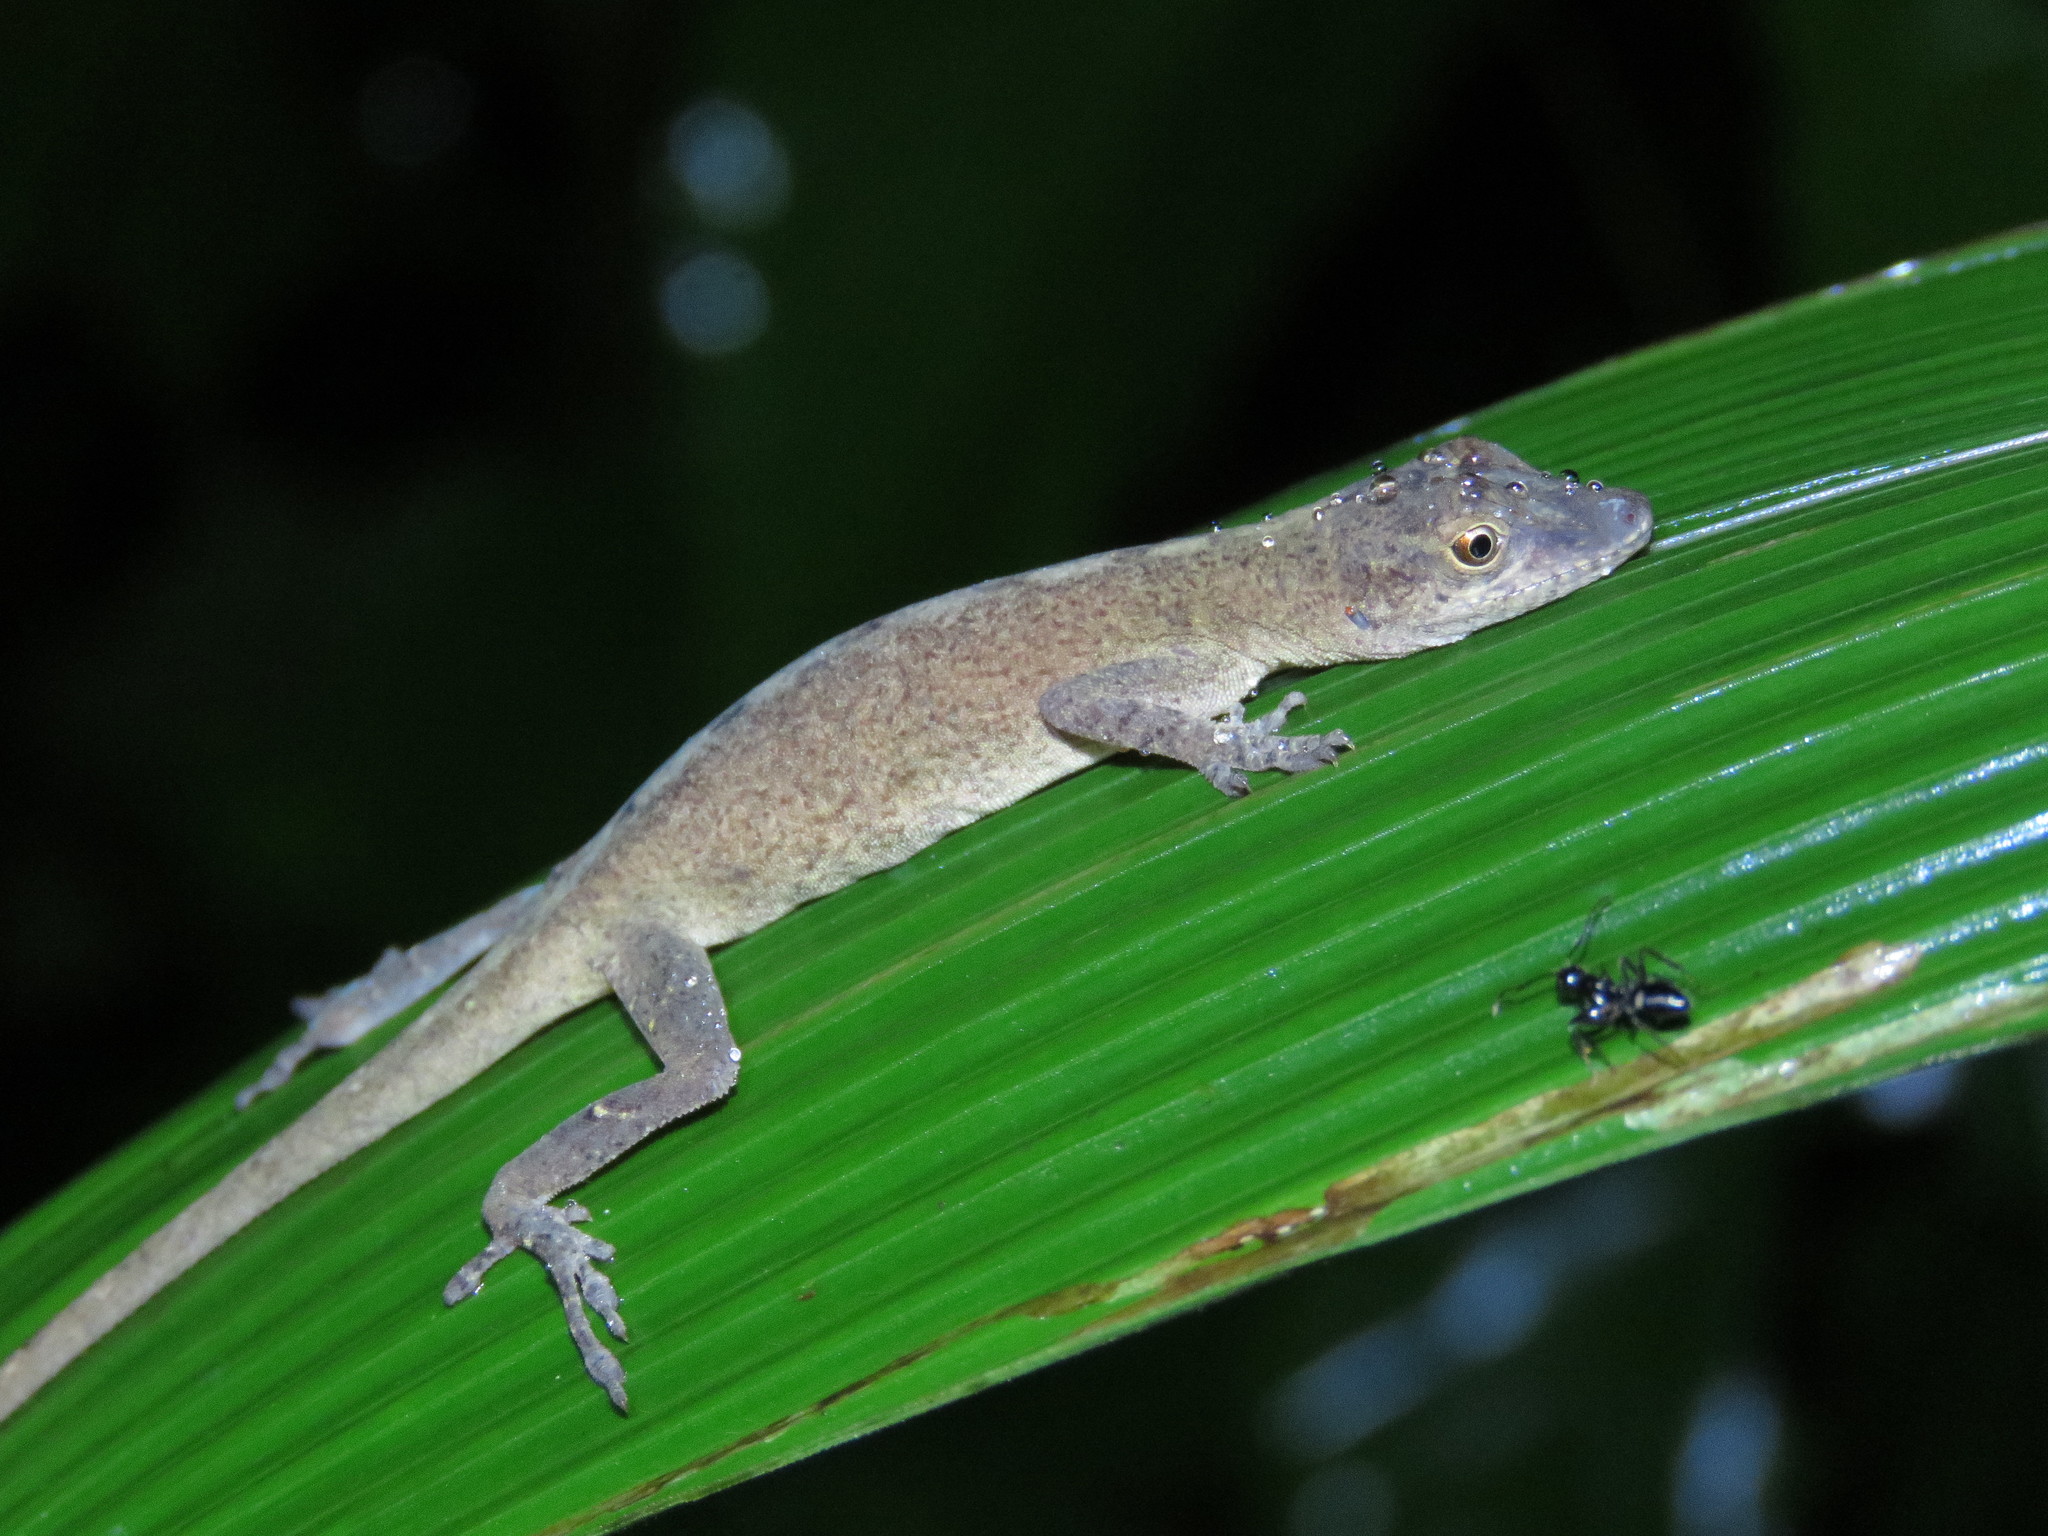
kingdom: Animalia
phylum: Chordata
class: Squamata
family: Dactyloidae
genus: Anolis
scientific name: Anolis fuscoauratus
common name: Brown-eared anole
